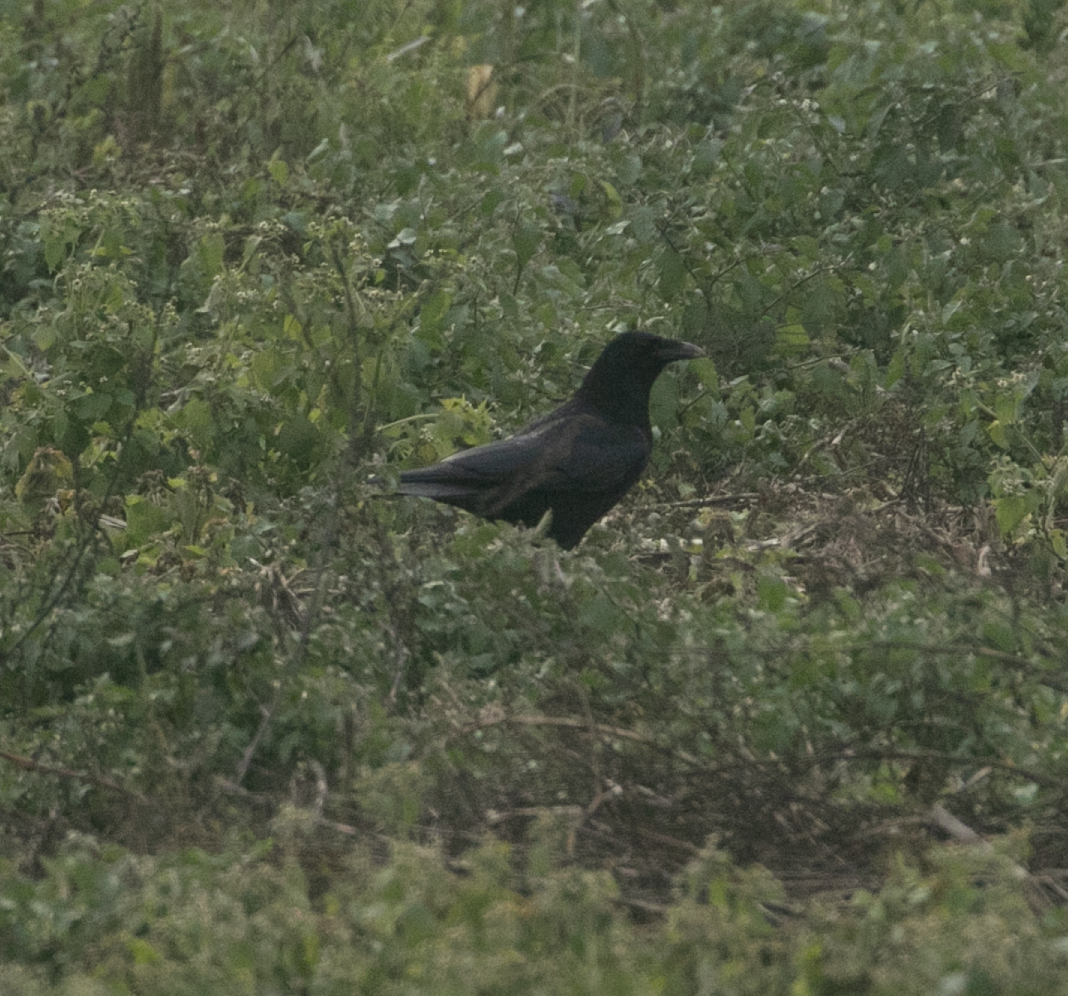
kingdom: Animalia
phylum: Chordata
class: Aves
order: Passeriformes
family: Corvidae
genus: Corvus
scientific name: Corvus corone
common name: Carrion crow
